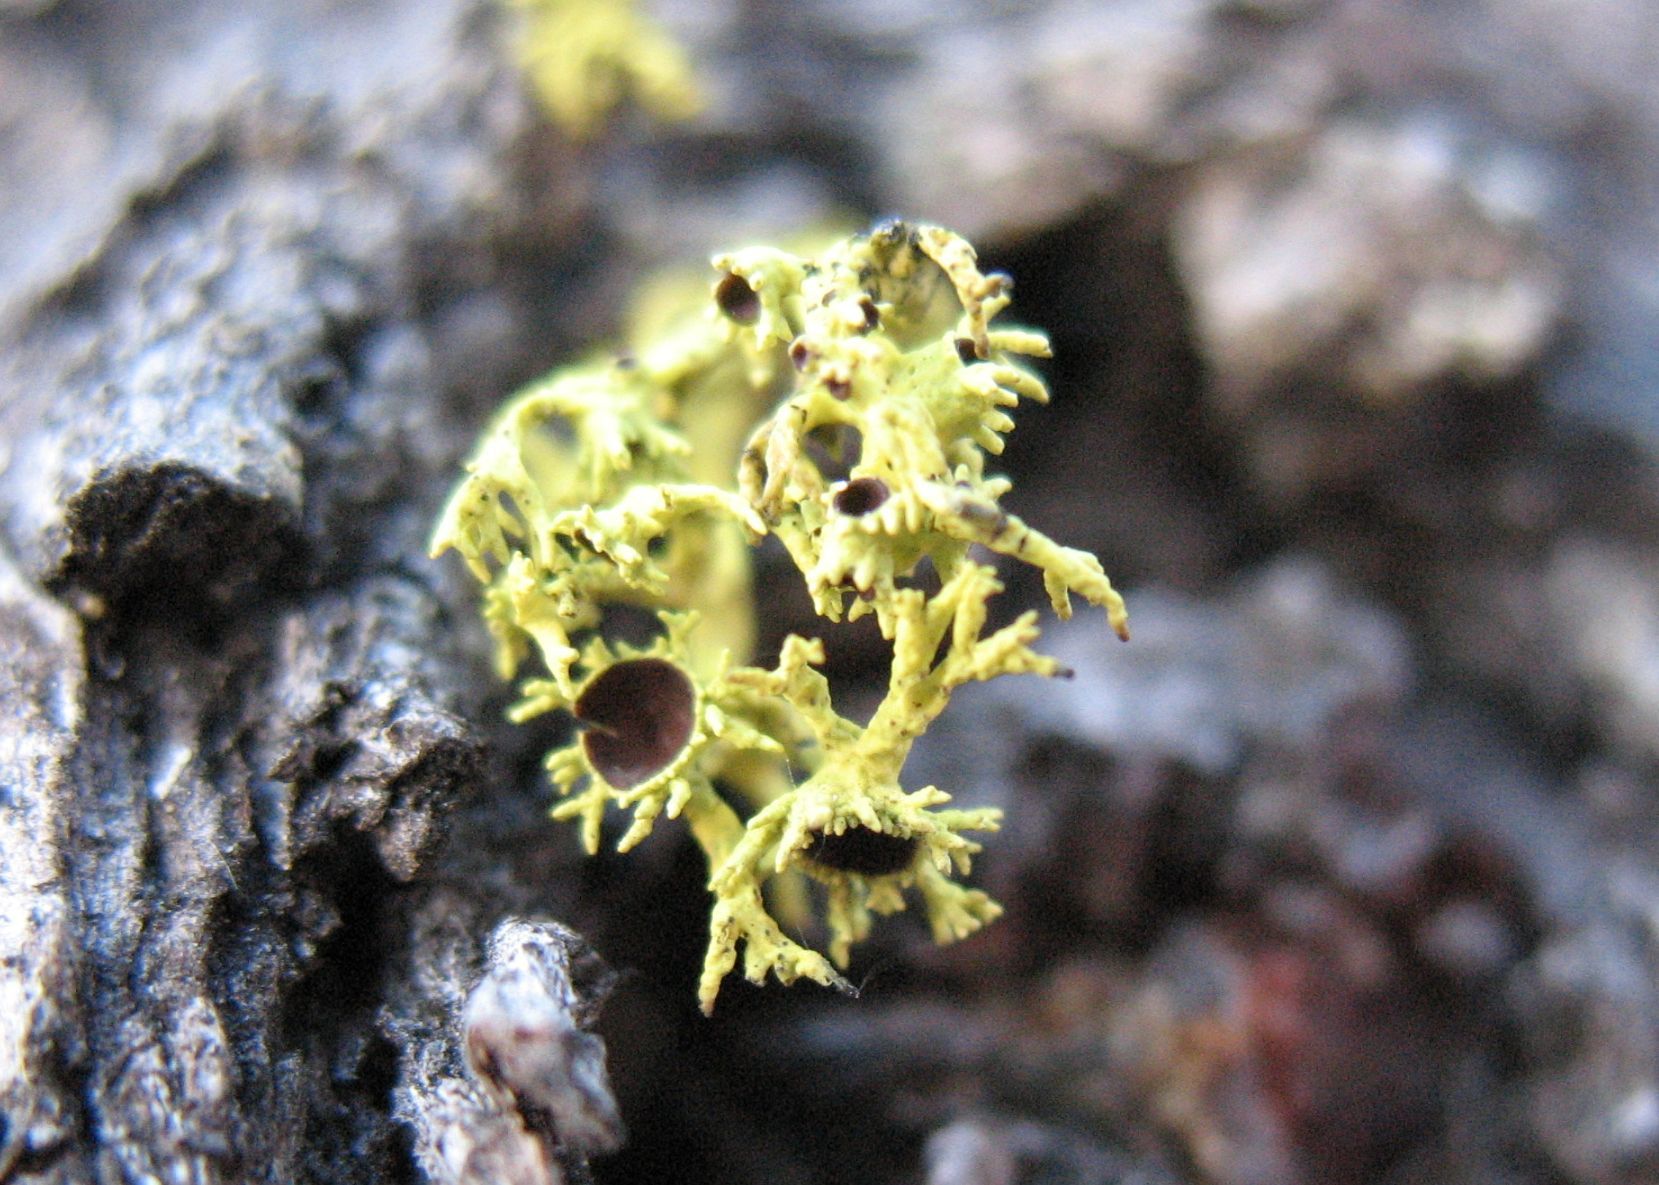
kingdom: Fungi
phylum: Ascomycota
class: Lecanoromycetes
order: Lecanorales
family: Parmeliaceae
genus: Letharia
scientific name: Letharia columbiana
